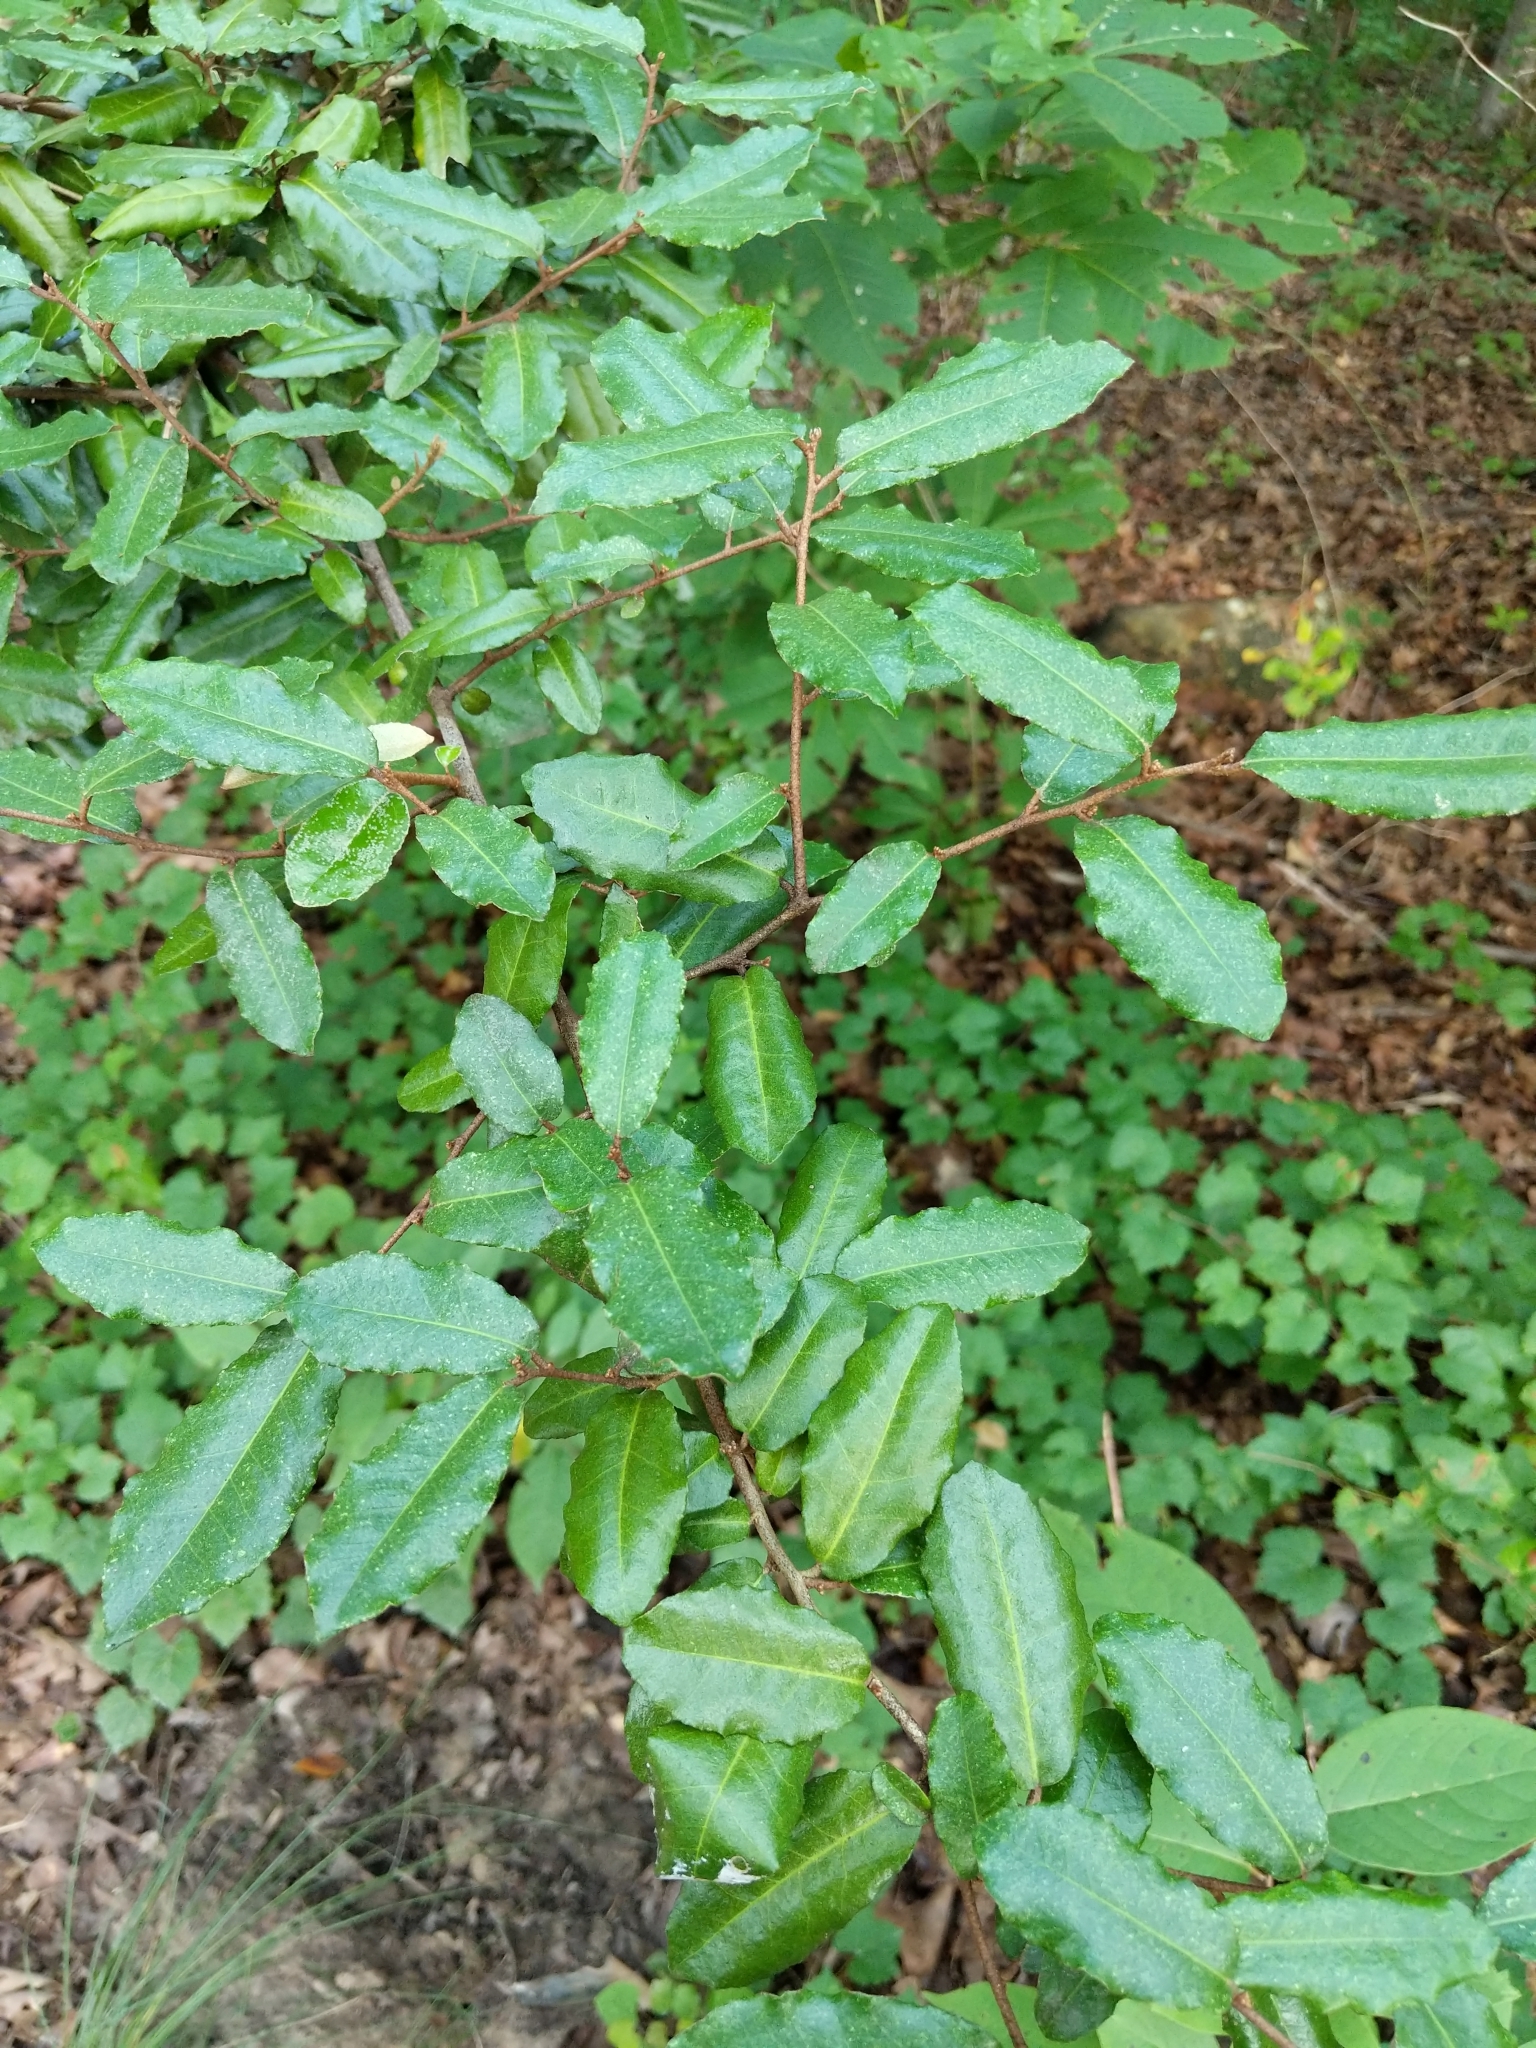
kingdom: Plantae
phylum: Tracheophyta
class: Magnoliopsida
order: Rosales
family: Elaeagnaceae
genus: Elaeagnus
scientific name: Elaeagnus pungens
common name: Spiny oleaster
